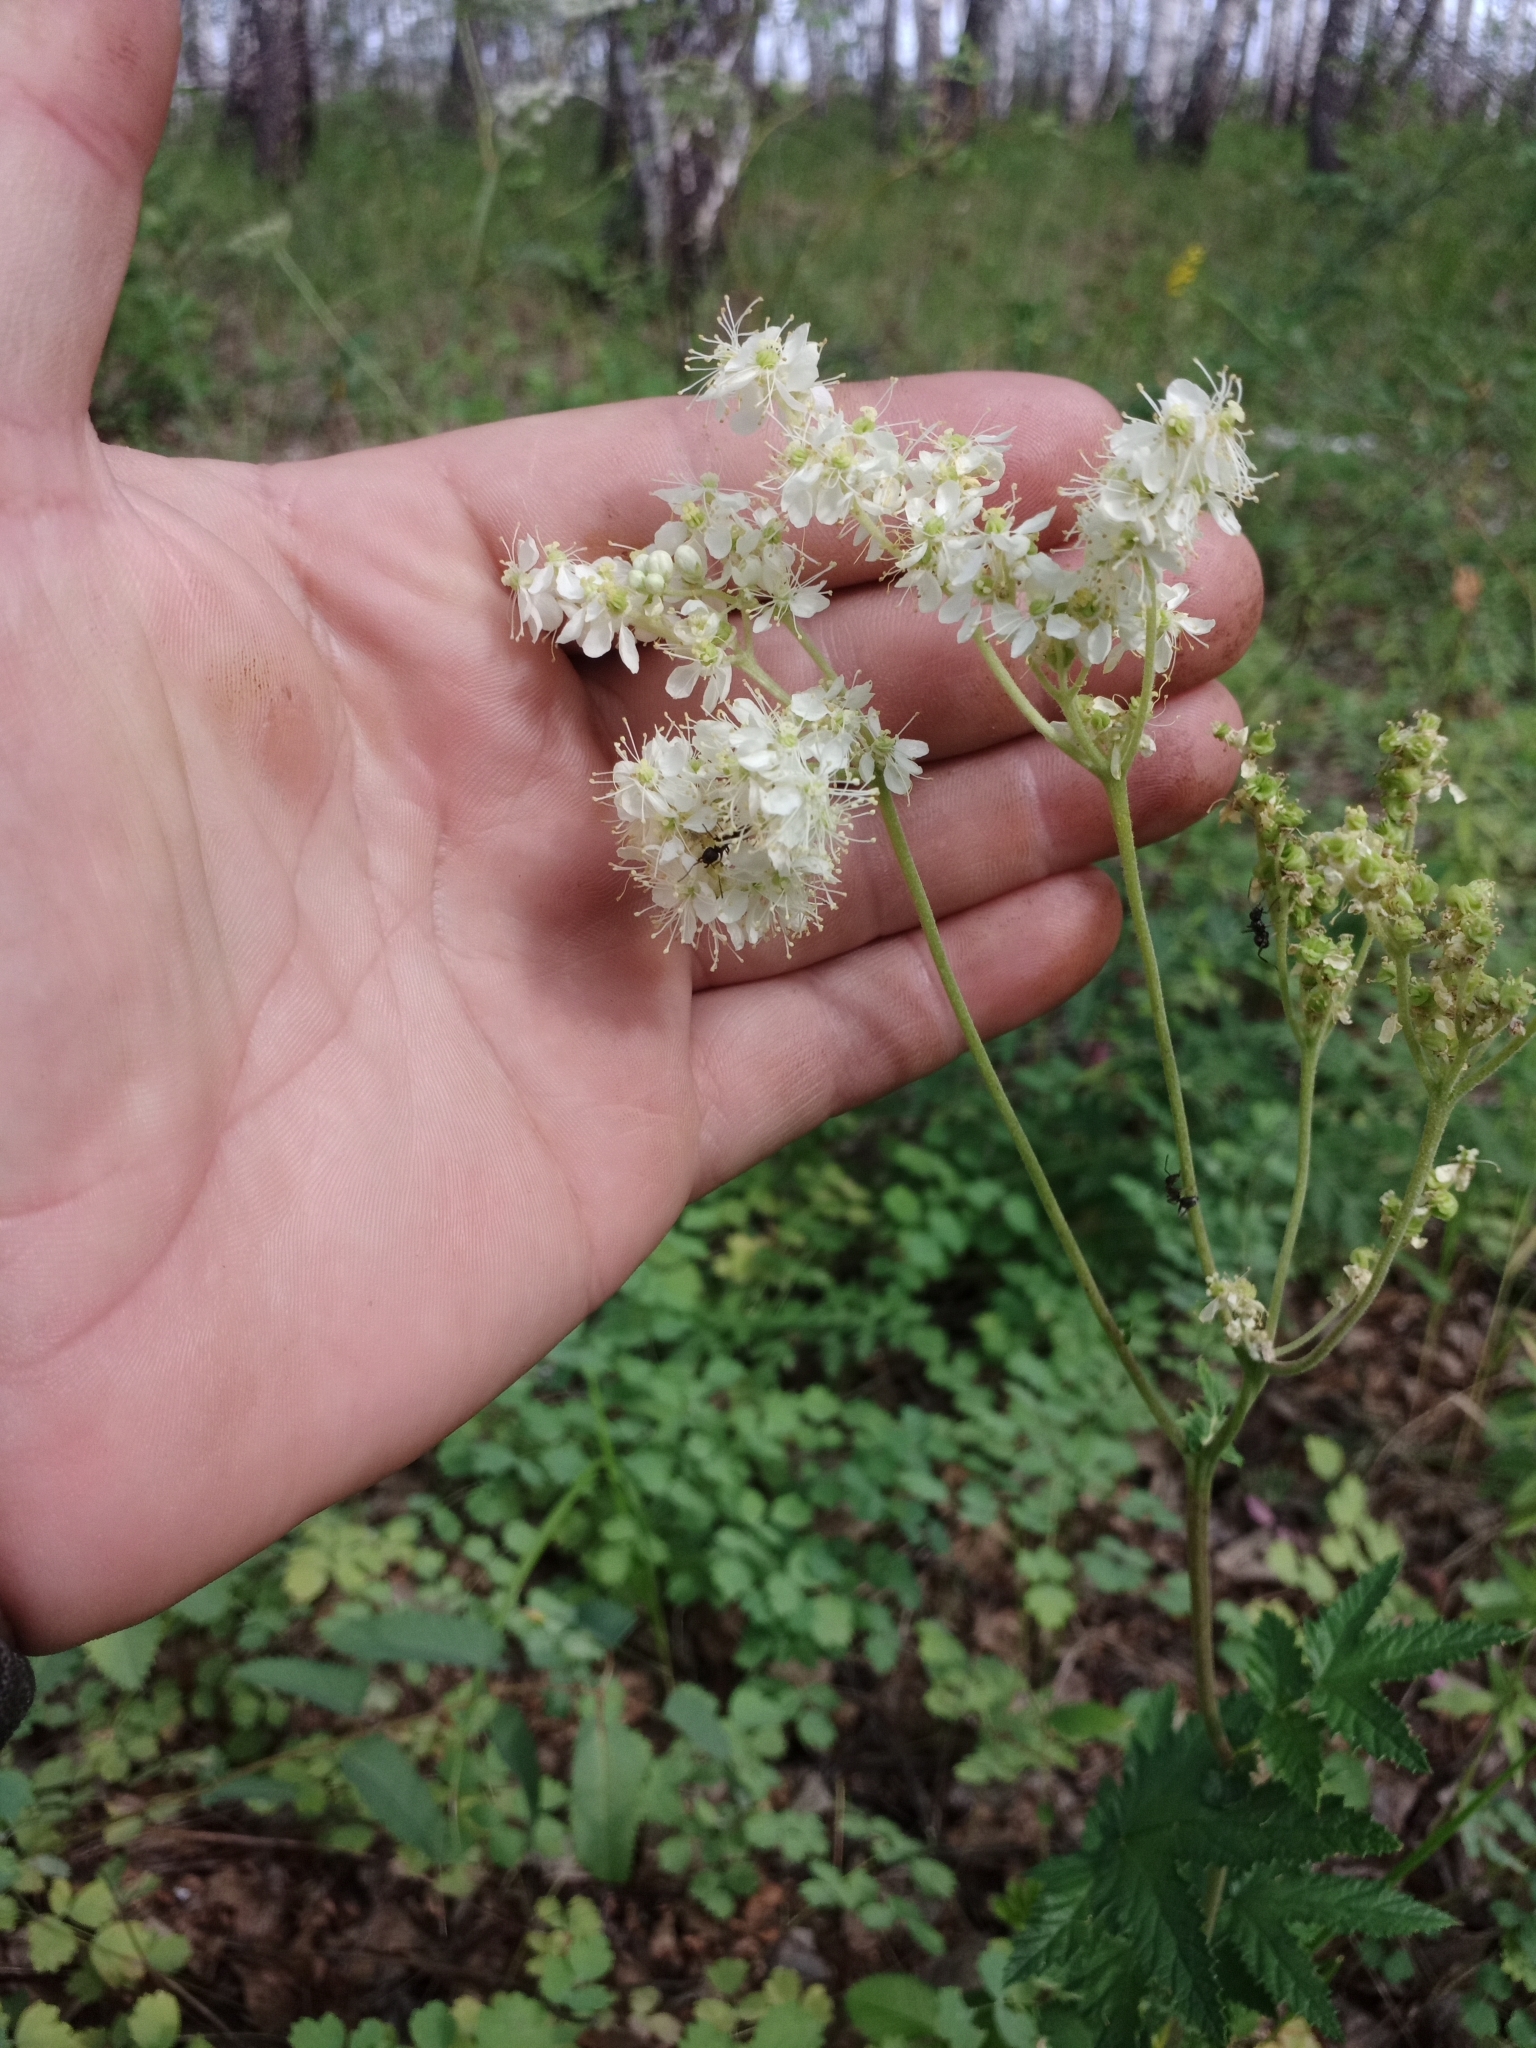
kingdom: Plantae
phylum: Tracheophyta
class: Magnoliopsida
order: Rosales
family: Rosaceae
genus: Filipendula
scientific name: Filipendula ulmaria
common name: Meadowsweet
